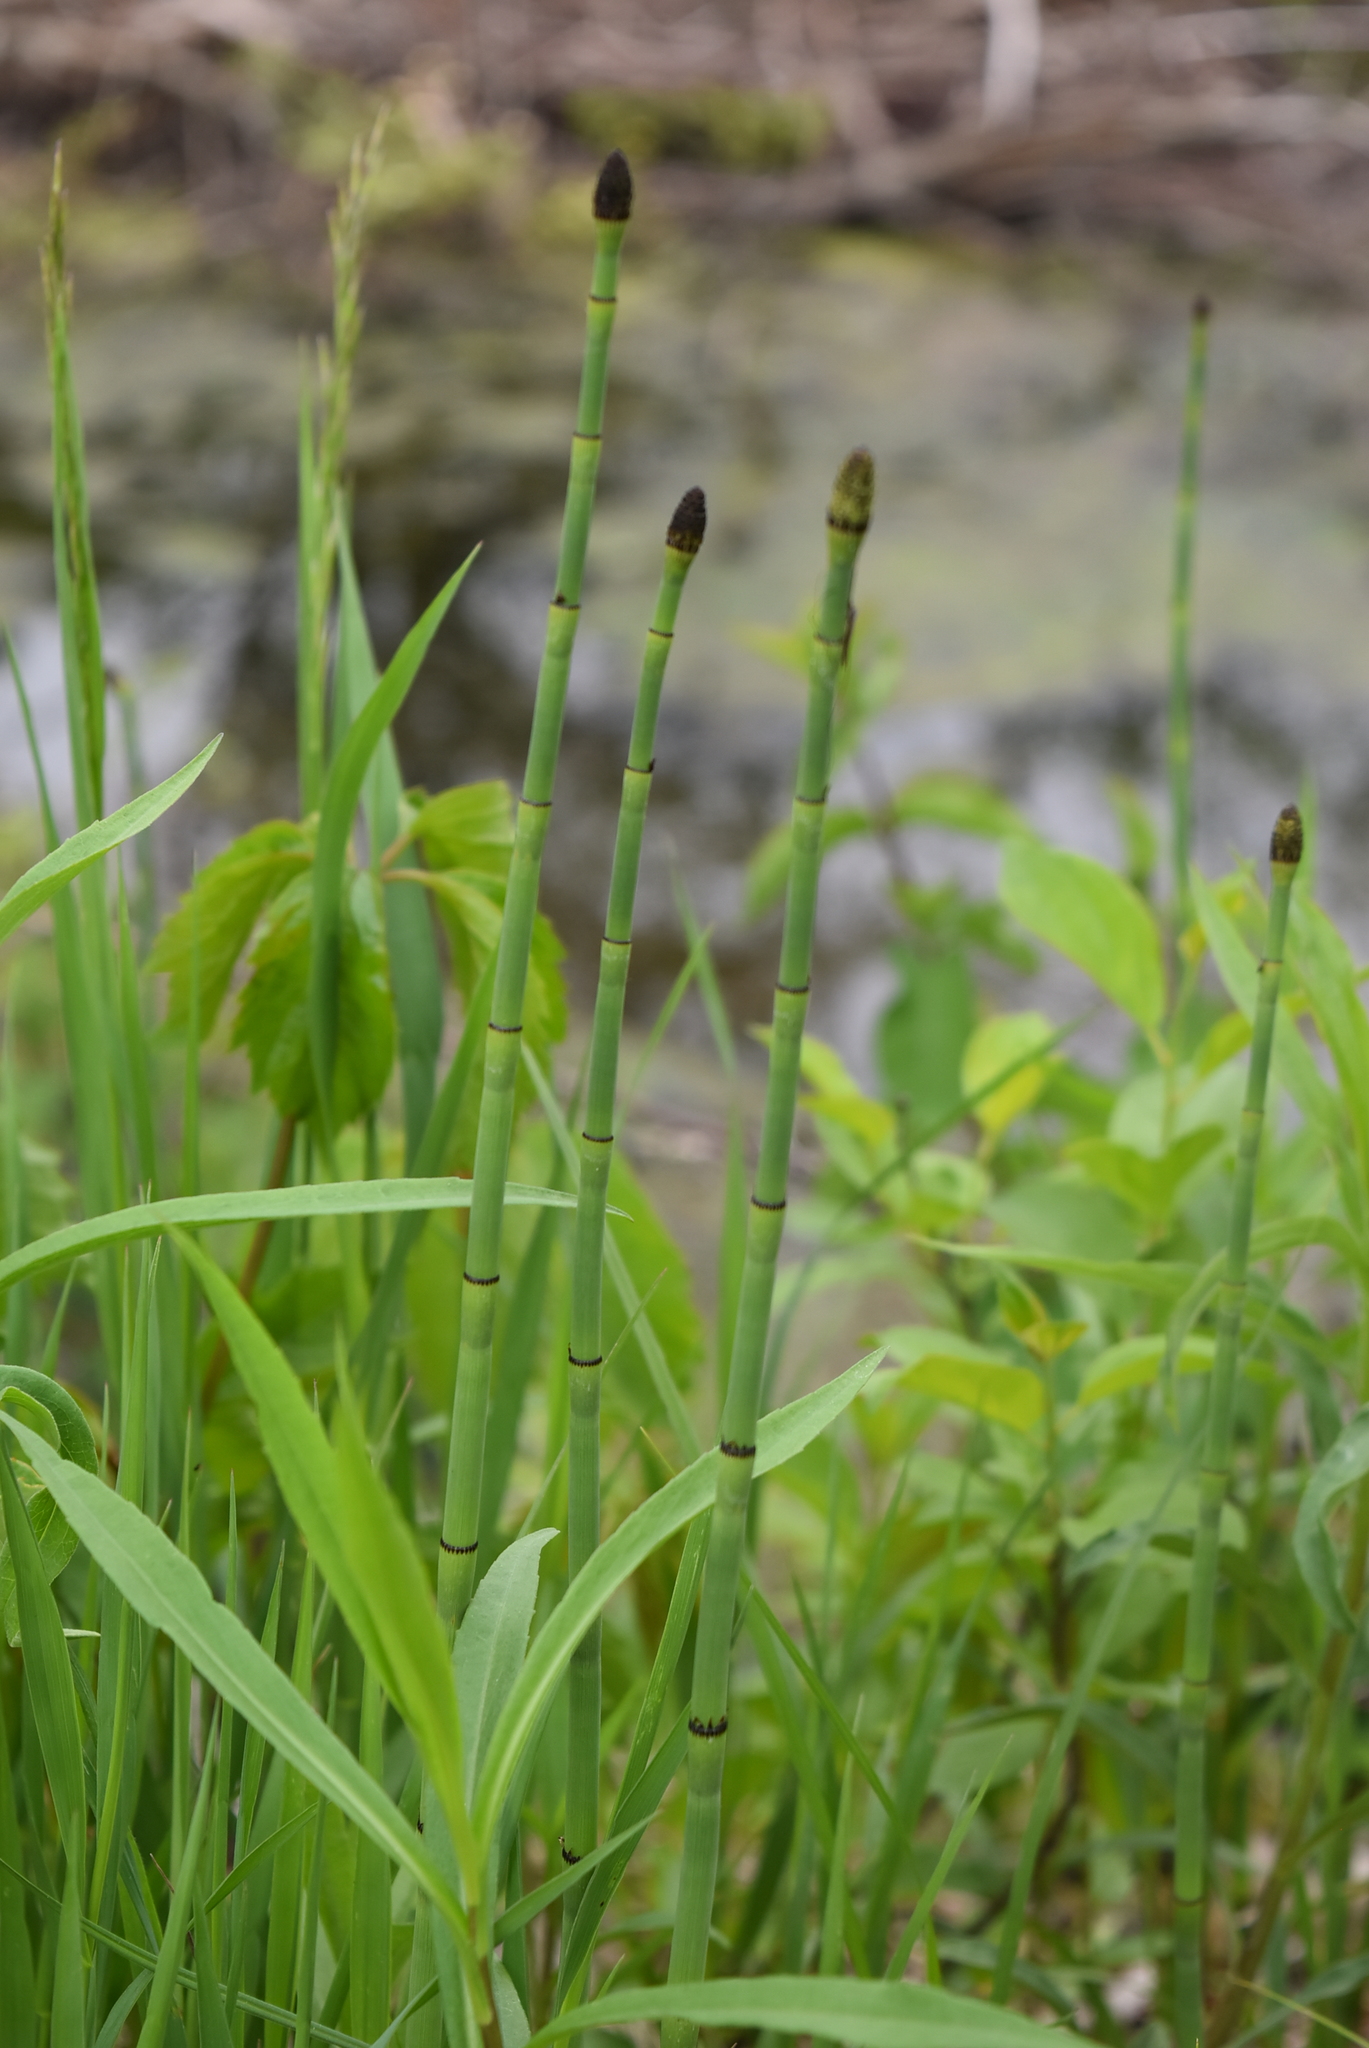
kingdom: Plantae
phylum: Tracheophyta
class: Polypodiopsida
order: Equisetales
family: Equisetaceae
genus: Equisetum
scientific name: Equisetum laevigatum
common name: Smooth scouring-rush
